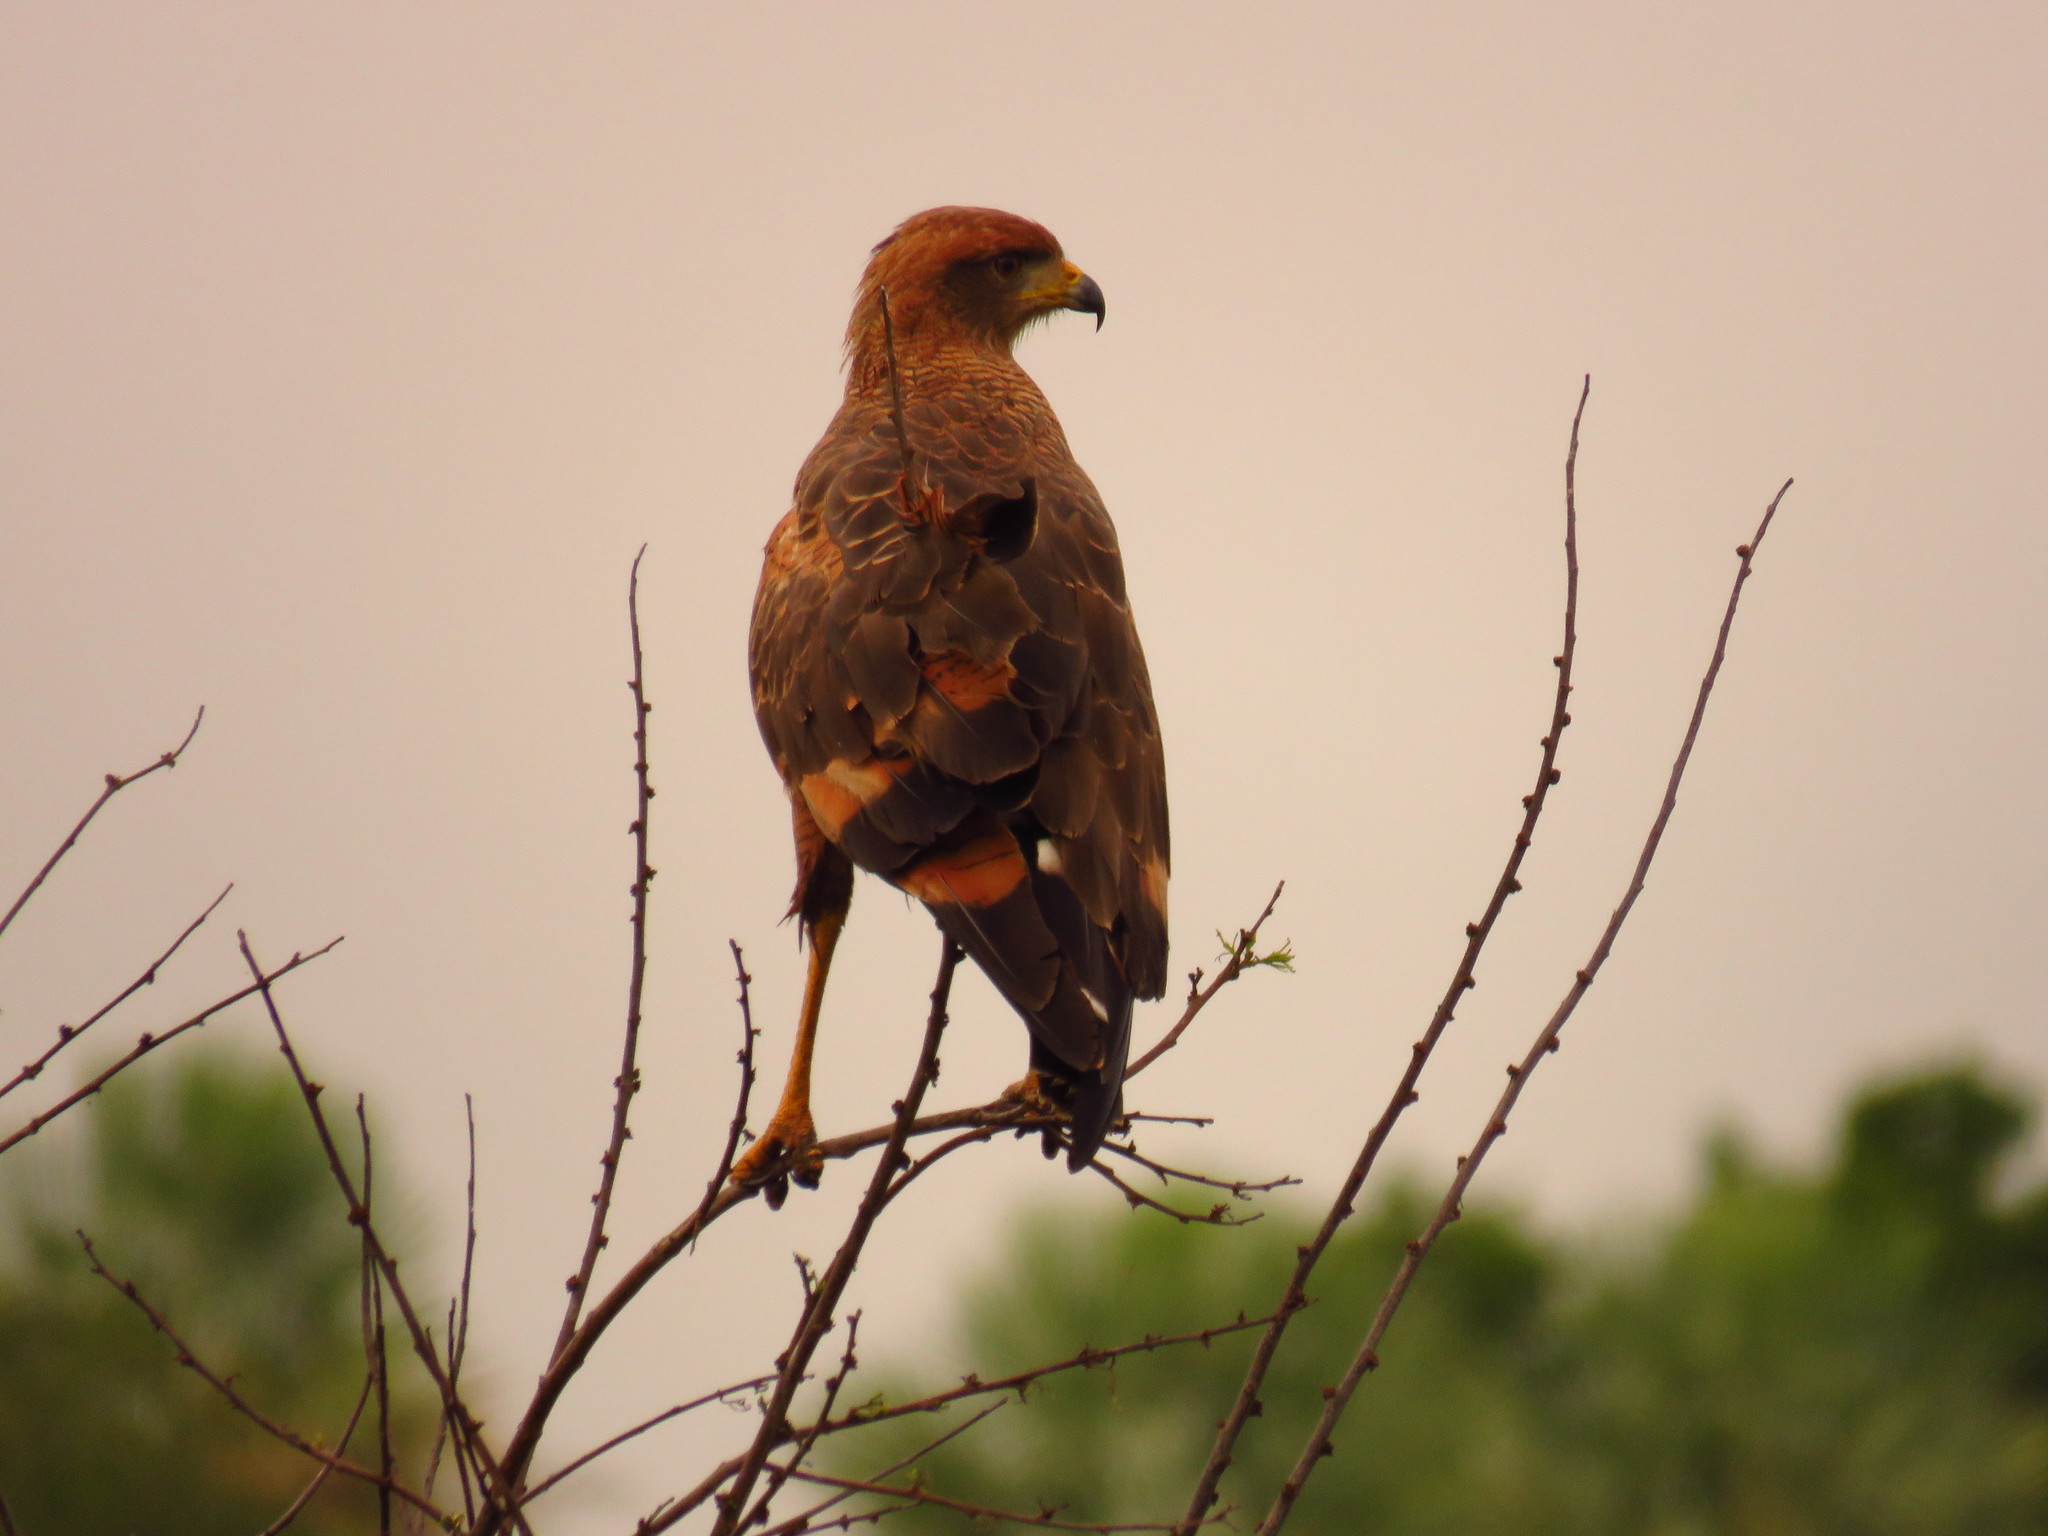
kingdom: Animalia
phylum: Chordata
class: Aves
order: Accipitriformes
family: Accipitridae
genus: Buteogallus
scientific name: Buteogallus meridionalis
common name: Savanna hawk
